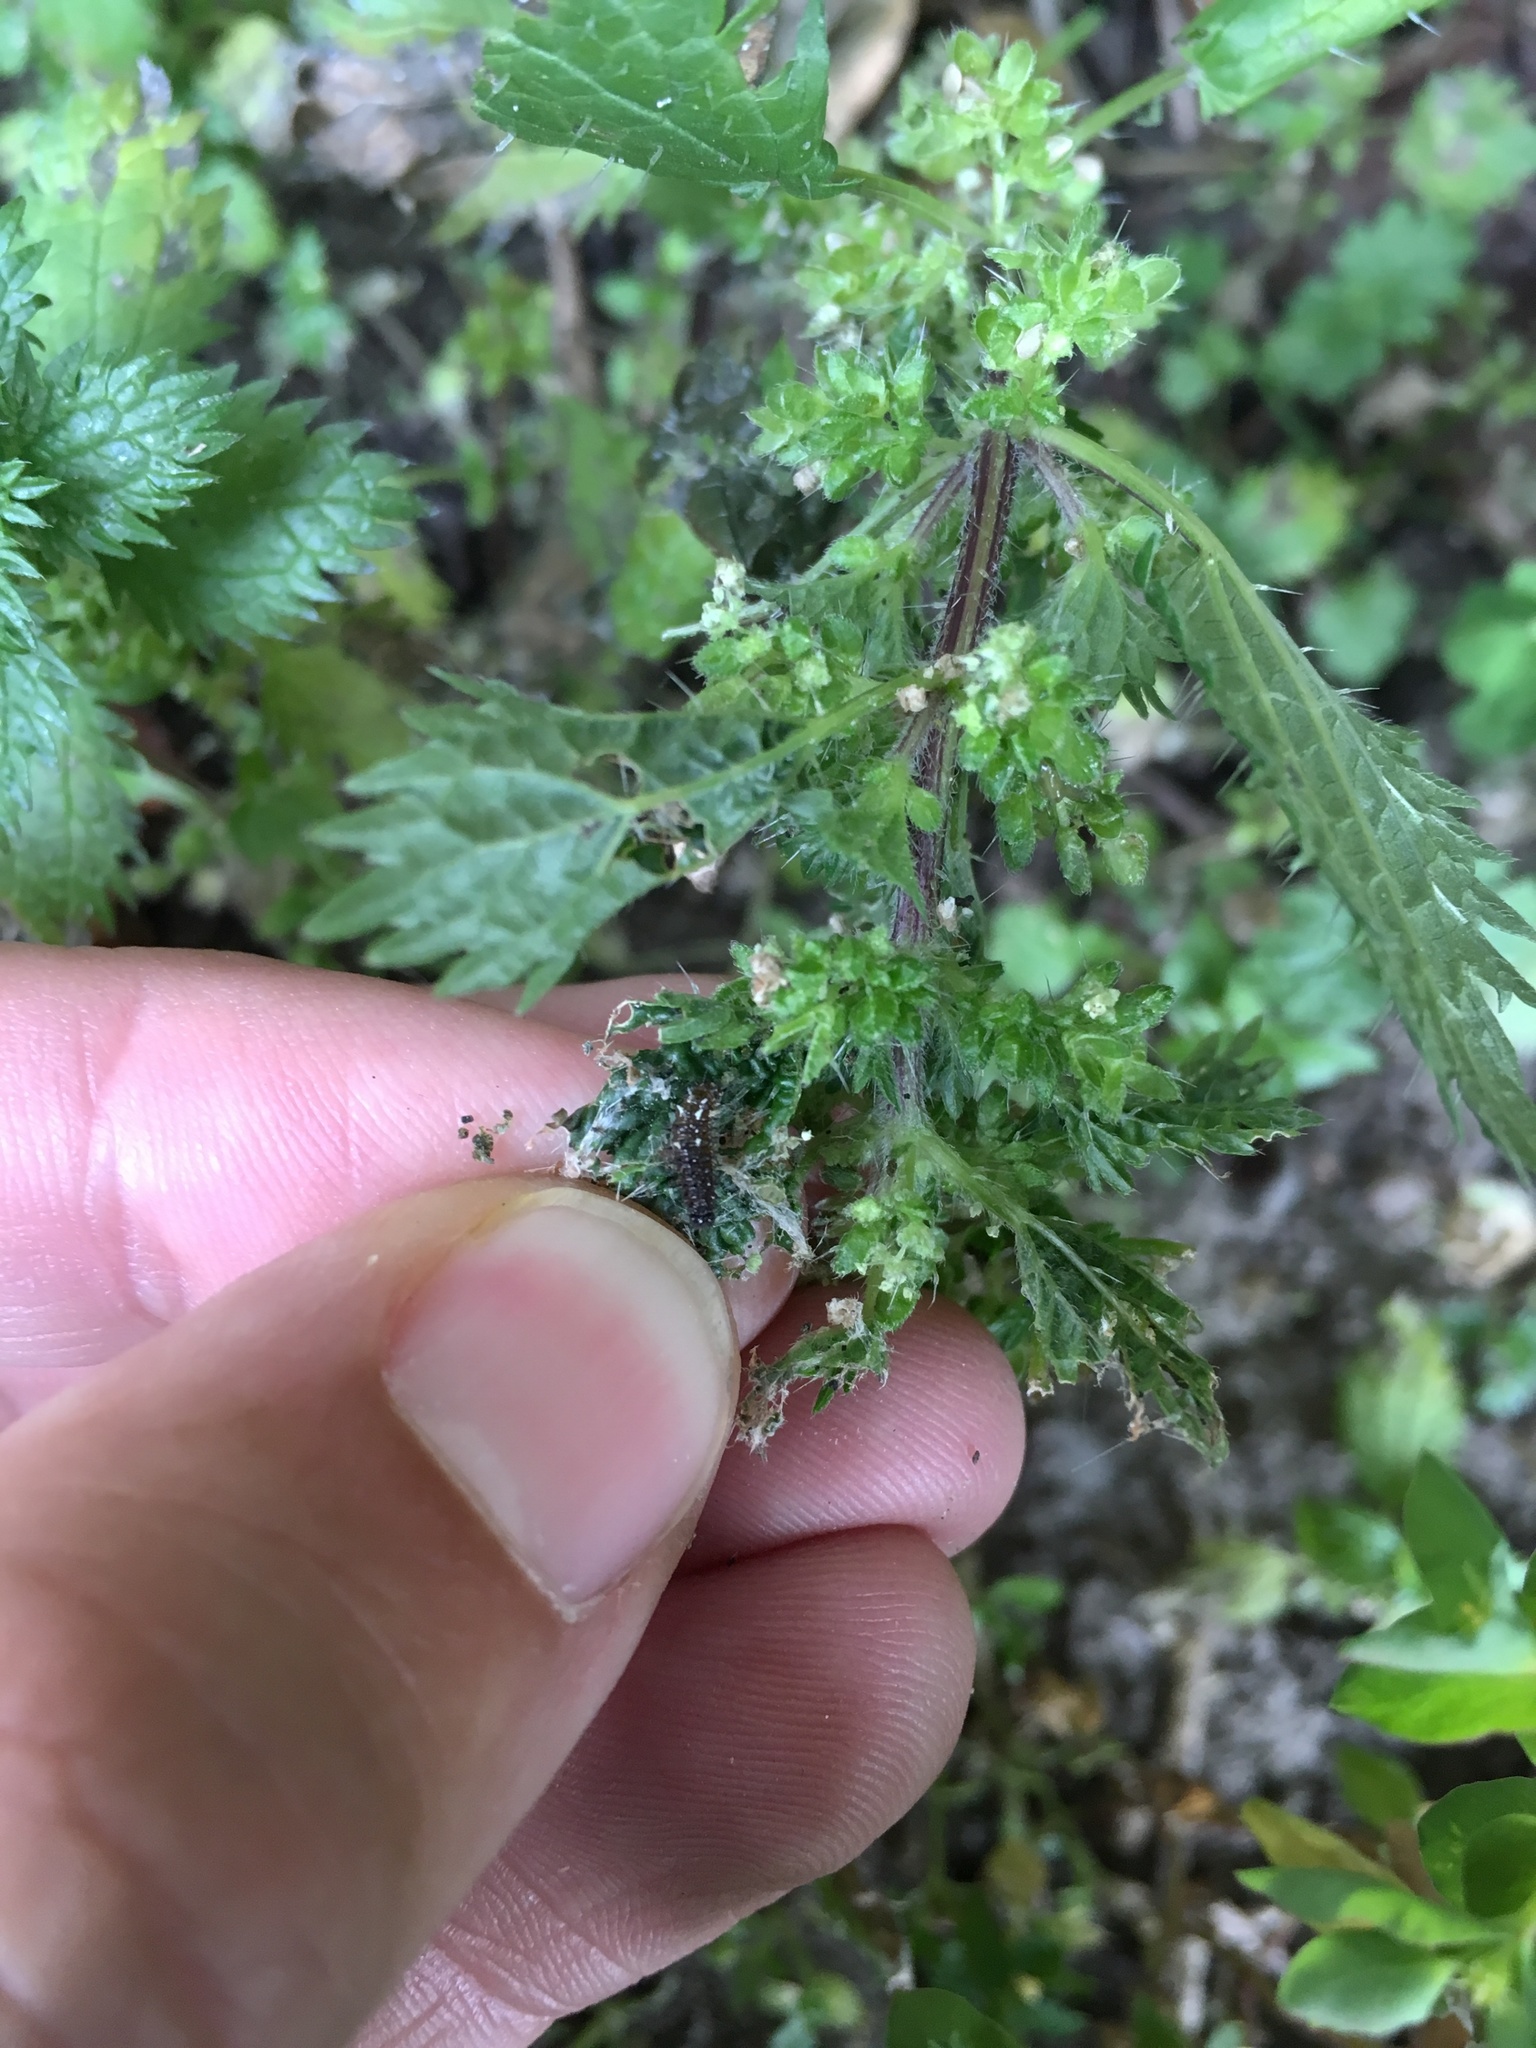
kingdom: Animalia
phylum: Arthropoda
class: Insecta
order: Lepidoptera
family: Nymphalidae
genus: Vanessa
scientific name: Vanessa itea
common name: Yellow admiral
